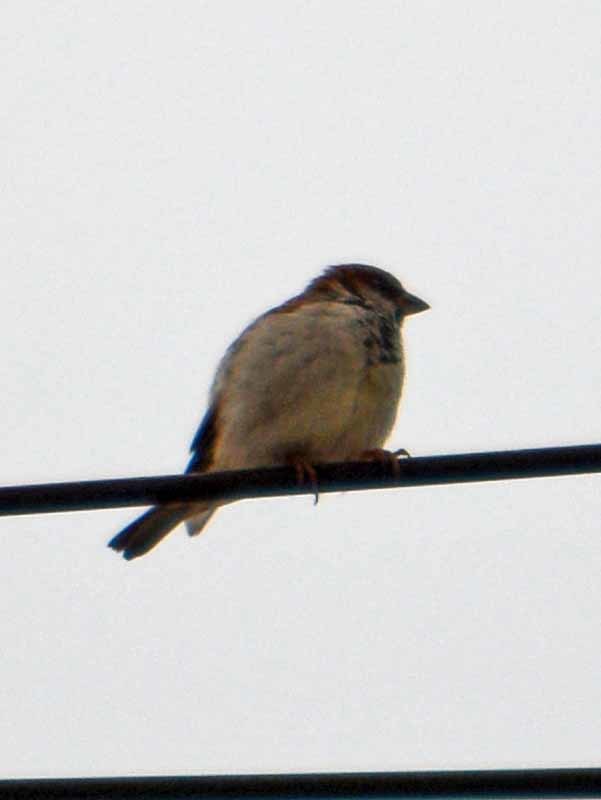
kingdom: Animalia
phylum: Chordata
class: Aves
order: Passeriformes
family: Passeridae
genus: Passer
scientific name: Passer domesticus
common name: House sparrow
